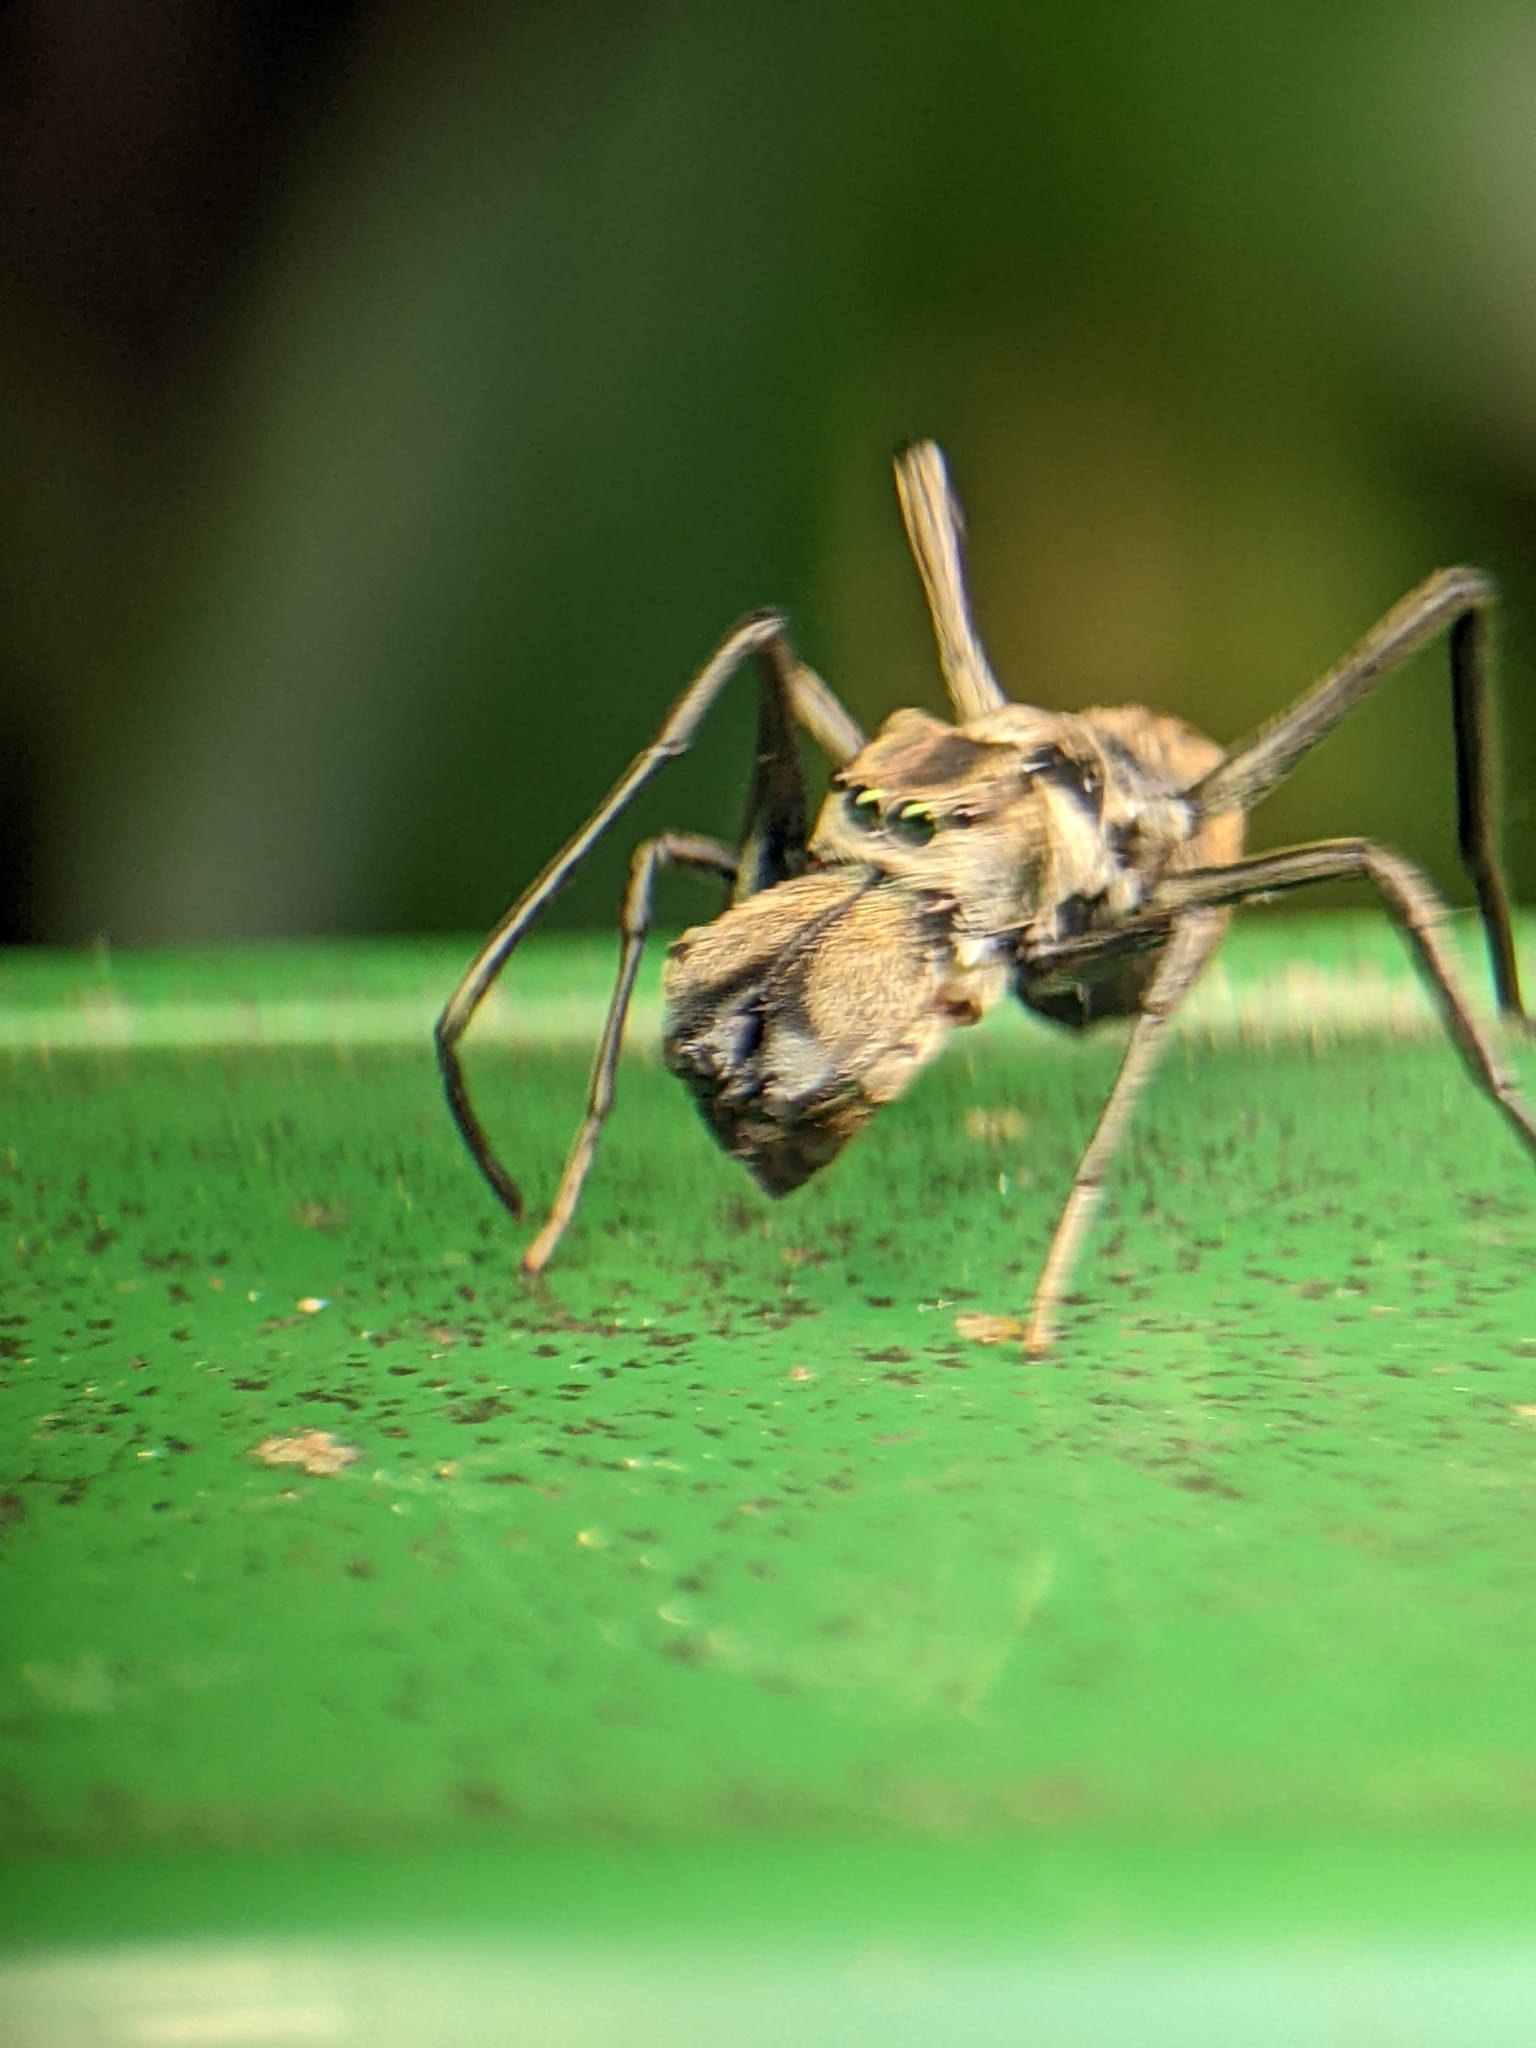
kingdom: Animalia
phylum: Arthropoda
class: Arachnida
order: Araneae
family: Salticidae
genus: Toxeus
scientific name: Toxeus maxillosus
